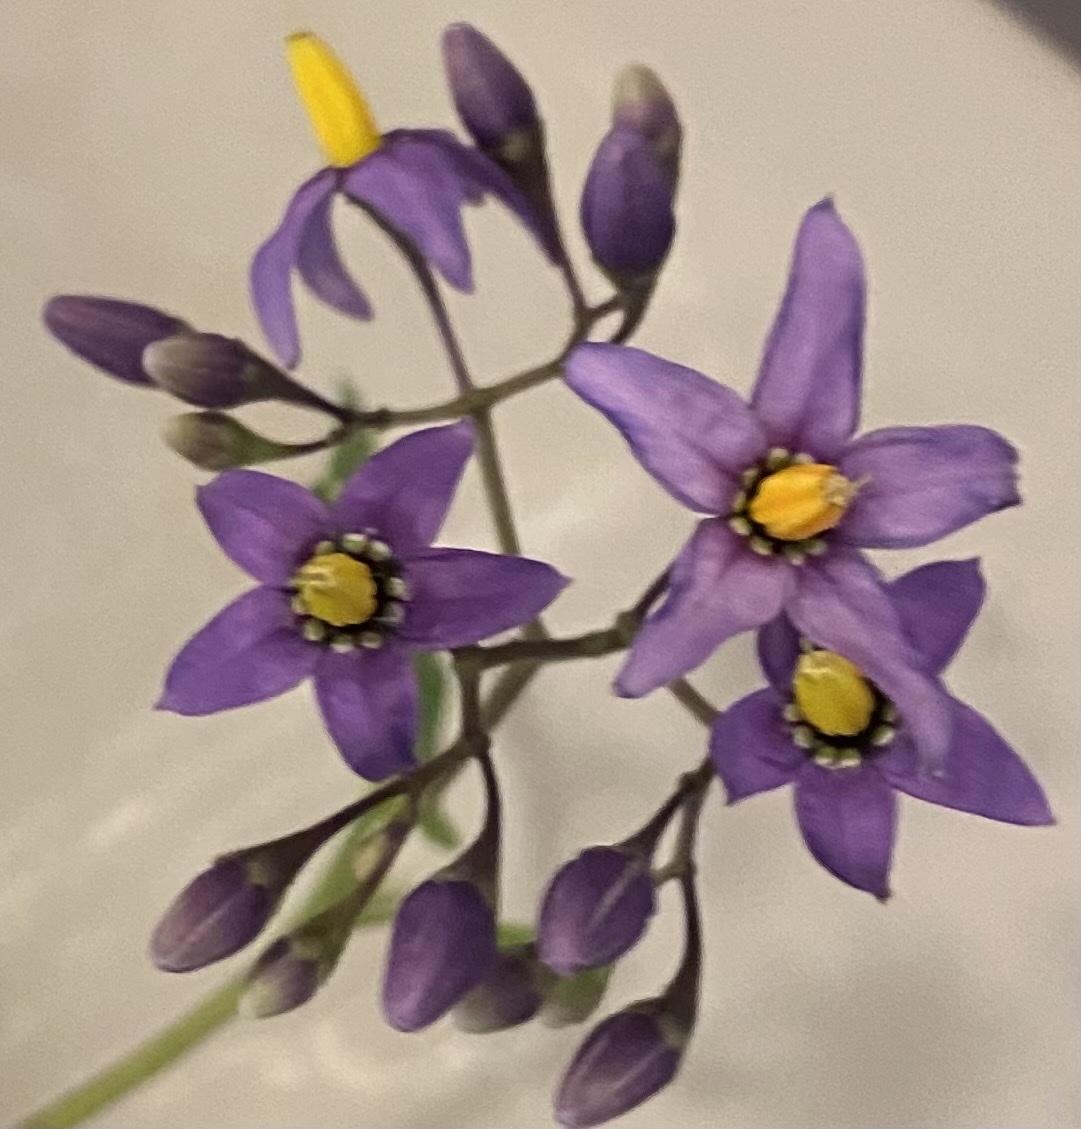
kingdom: Plantae
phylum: Tracheophyta
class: Magnoliopsida
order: Solanales
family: Solanaceae
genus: Solanum
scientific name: Solanum dulcamara
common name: Climbing nightshade
